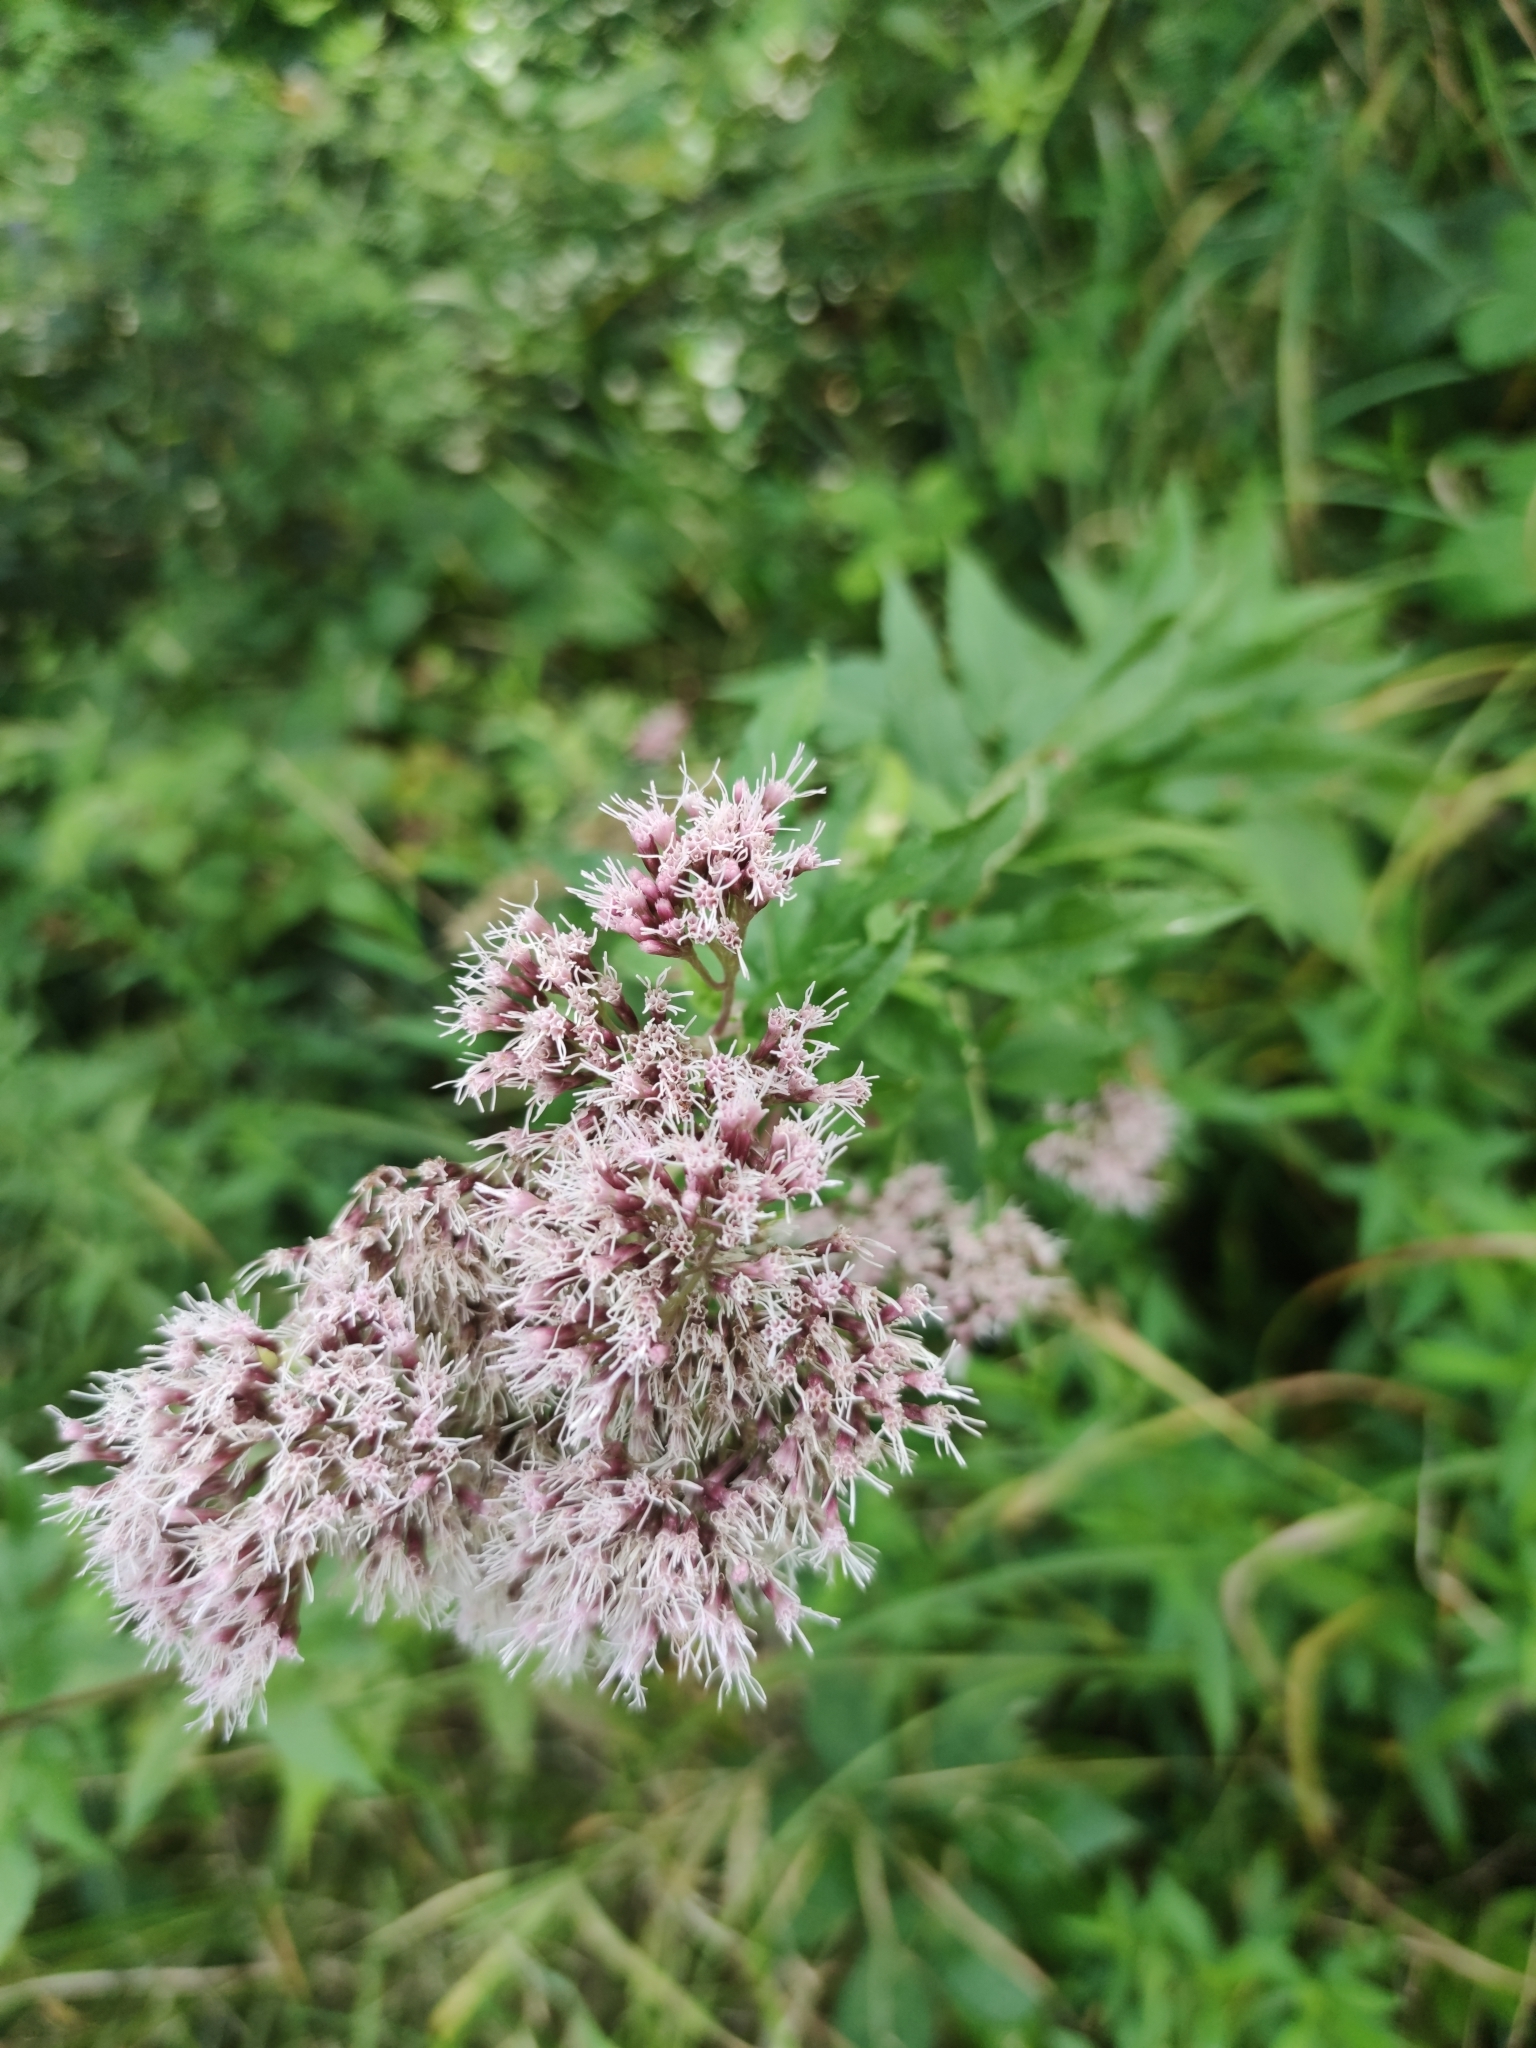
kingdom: Plantae
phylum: Tracheophyta
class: Magnoliopsida
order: Asterales
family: Asteraceae
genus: Eupatorium
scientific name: Eupatorium cannabinum
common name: Hemp-agrimony
